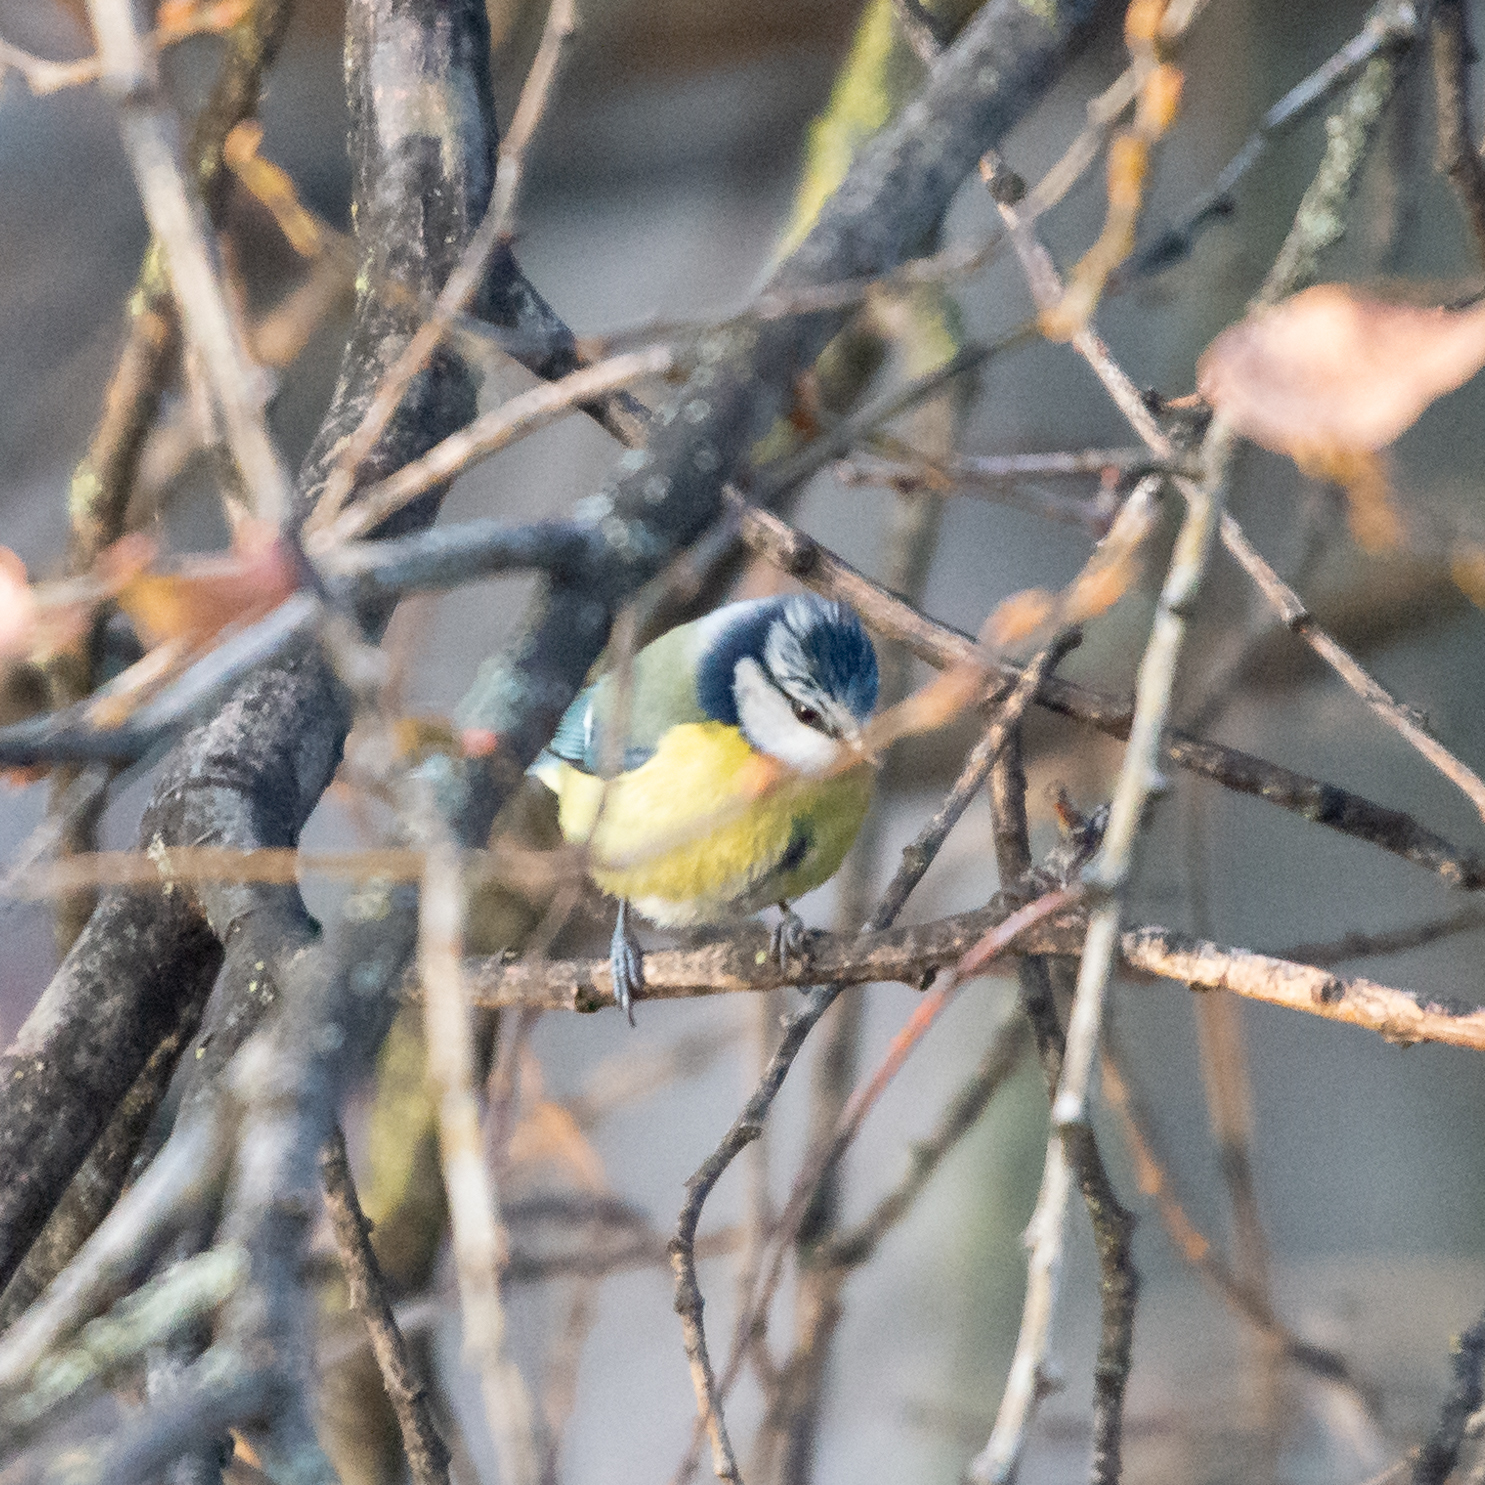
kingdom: Animalia
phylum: Chordata
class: Aves
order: Passeriformes
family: Paridae
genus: Cyanistes
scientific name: Cyanistes caeruleus
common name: Eurasian blue tit
